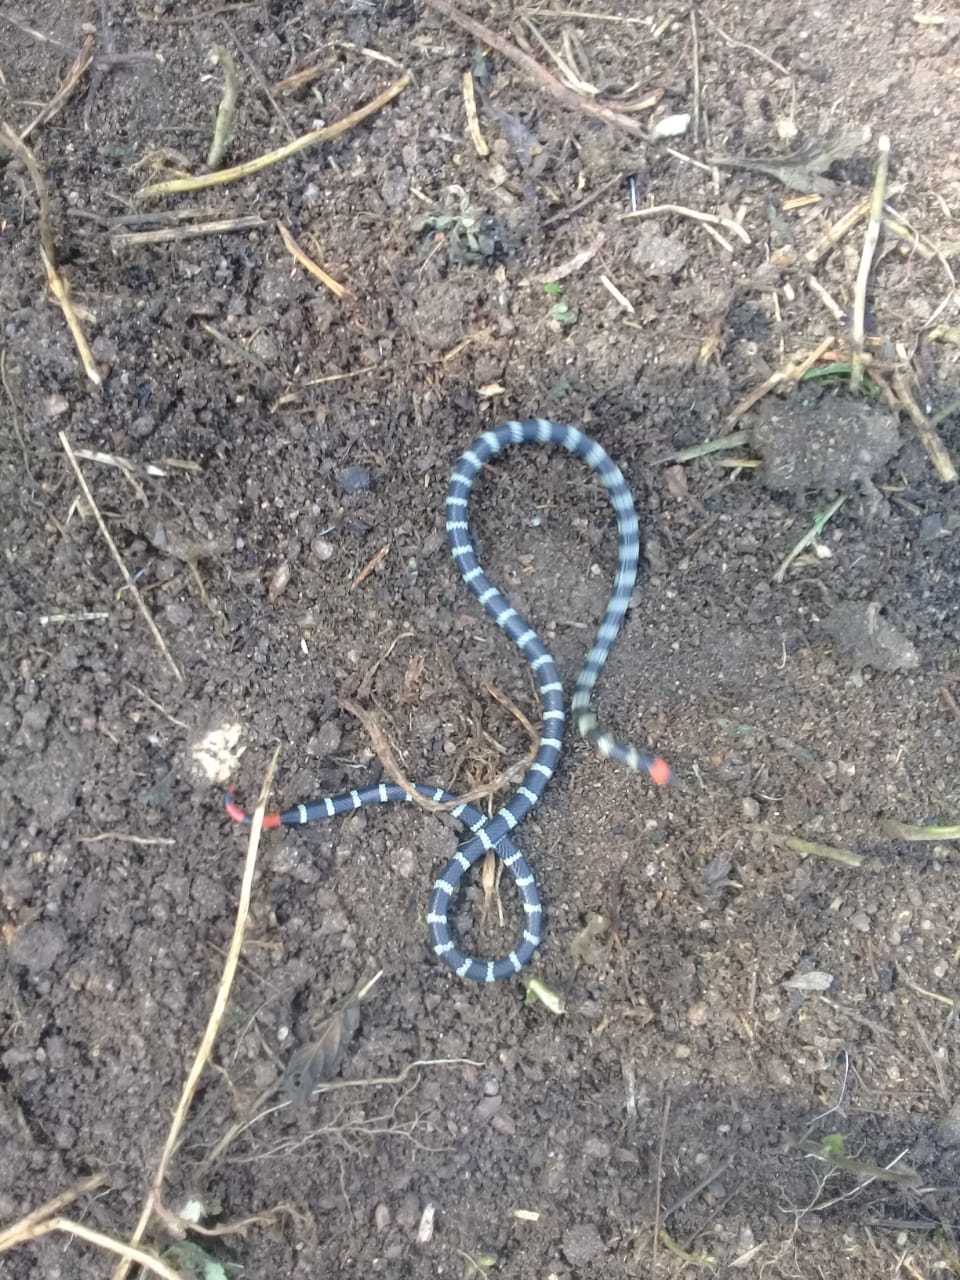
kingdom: Animalia
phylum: Chordata
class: Squamata
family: Elapidae
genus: Micrurus
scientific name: Micrurus mipartitus
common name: Redtail coral snake
